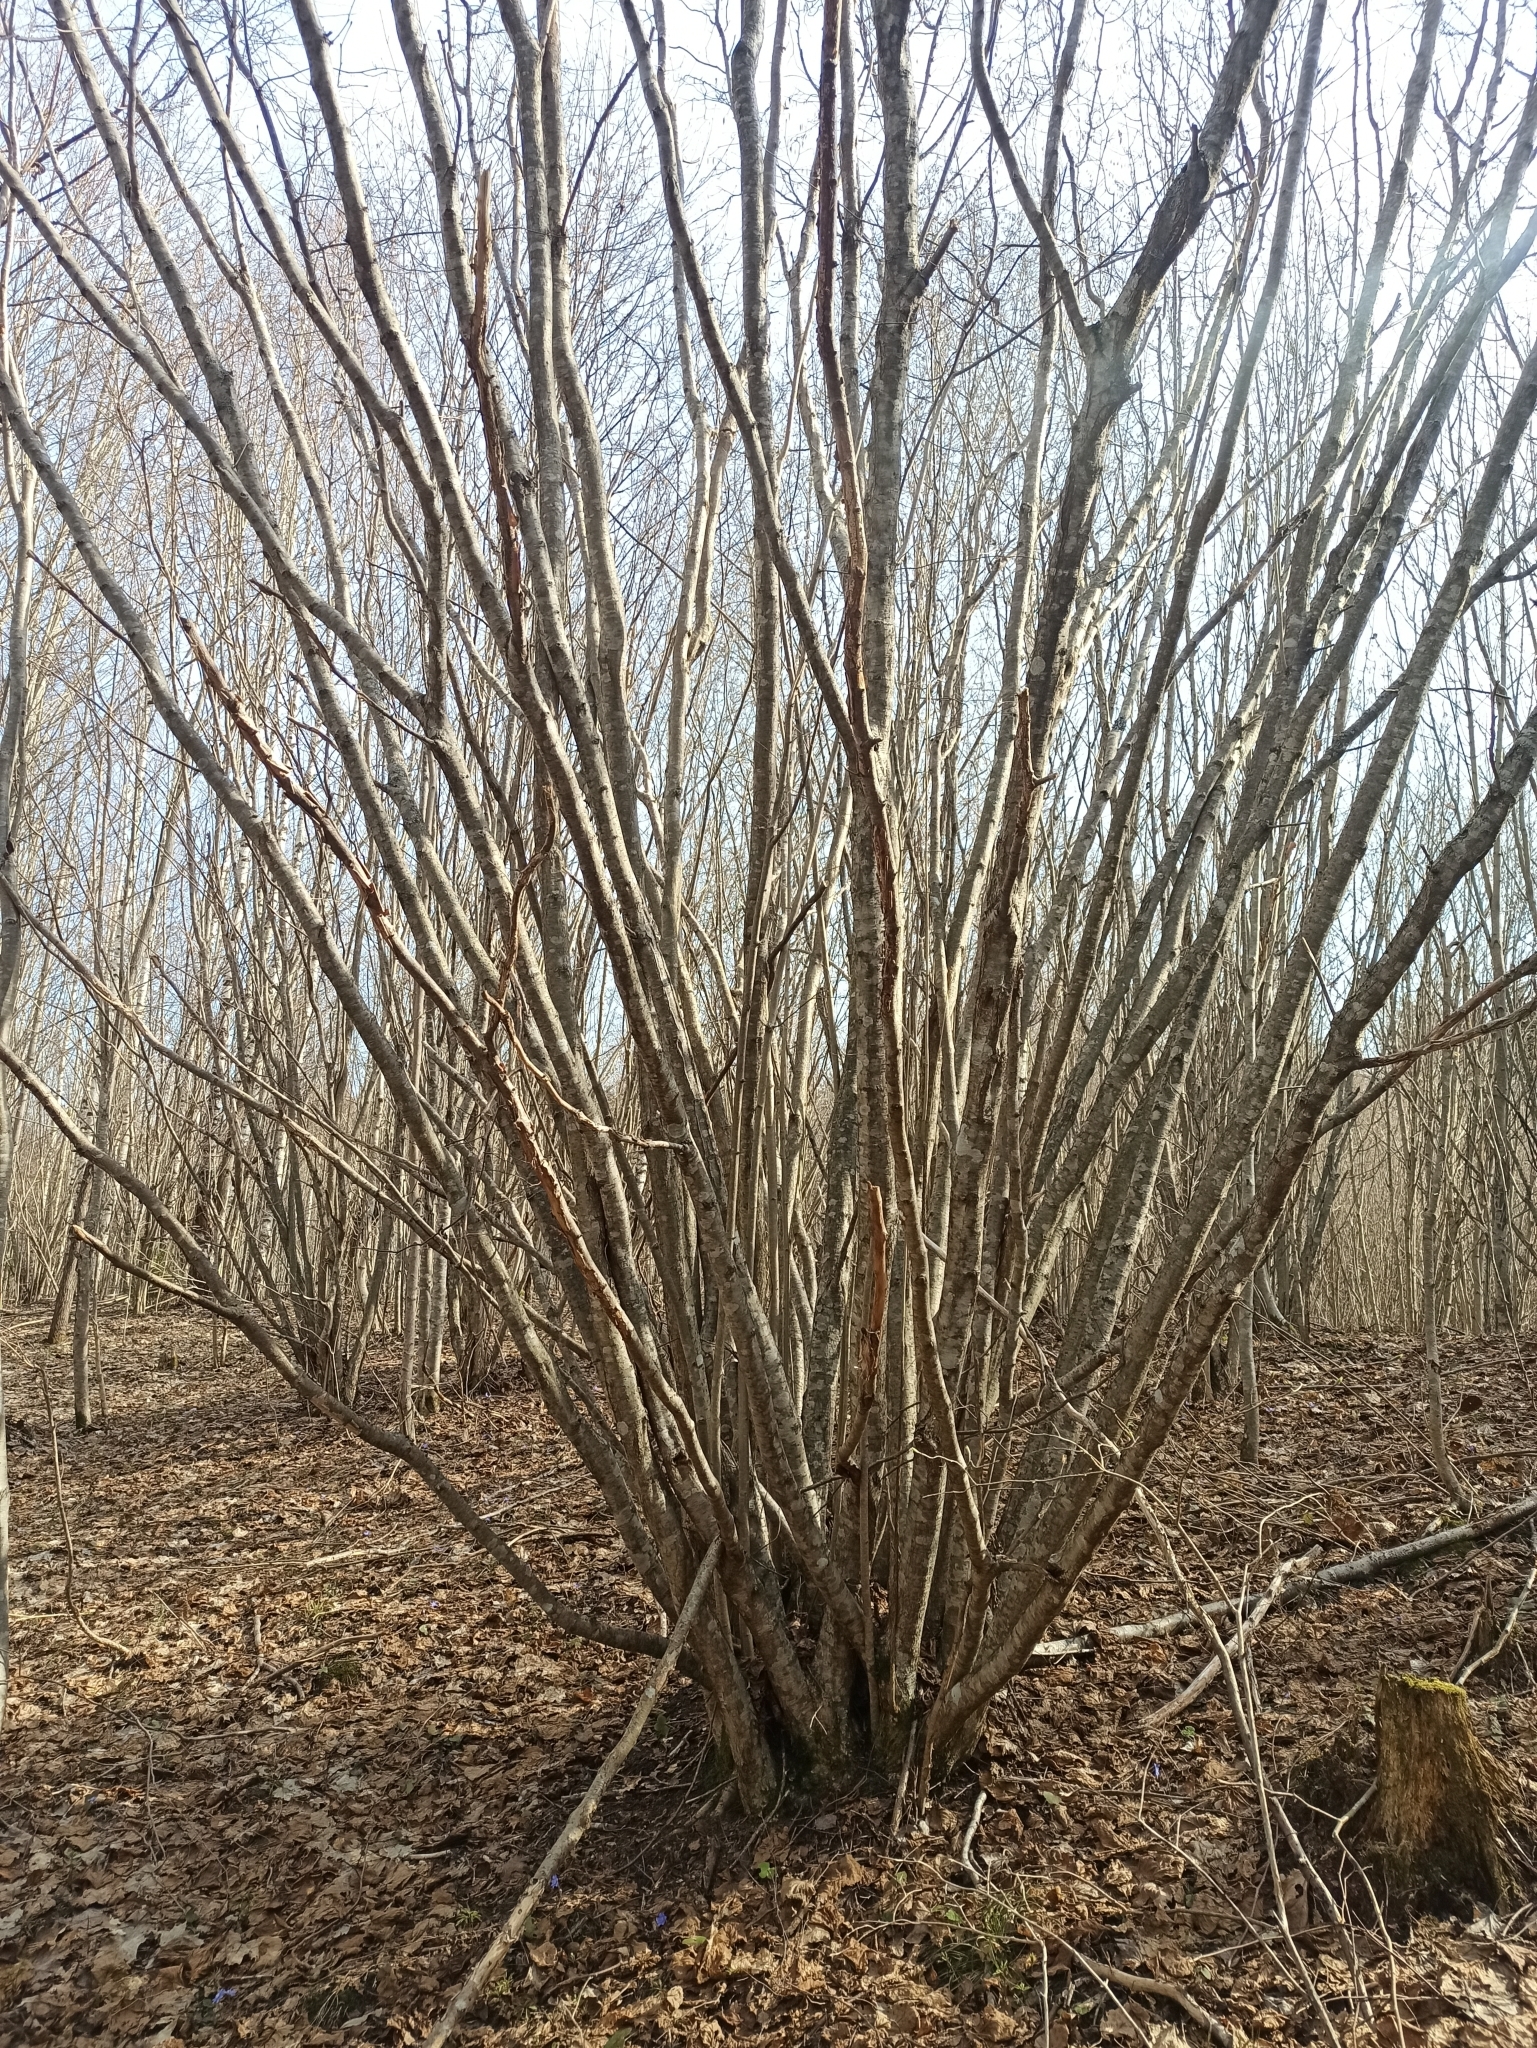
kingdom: Plantae
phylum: Tracheophyta
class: Magnoliopsida
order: Fagales
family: Betulaceae
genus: Corylus
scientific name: Corylus avellana
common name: European hazel
